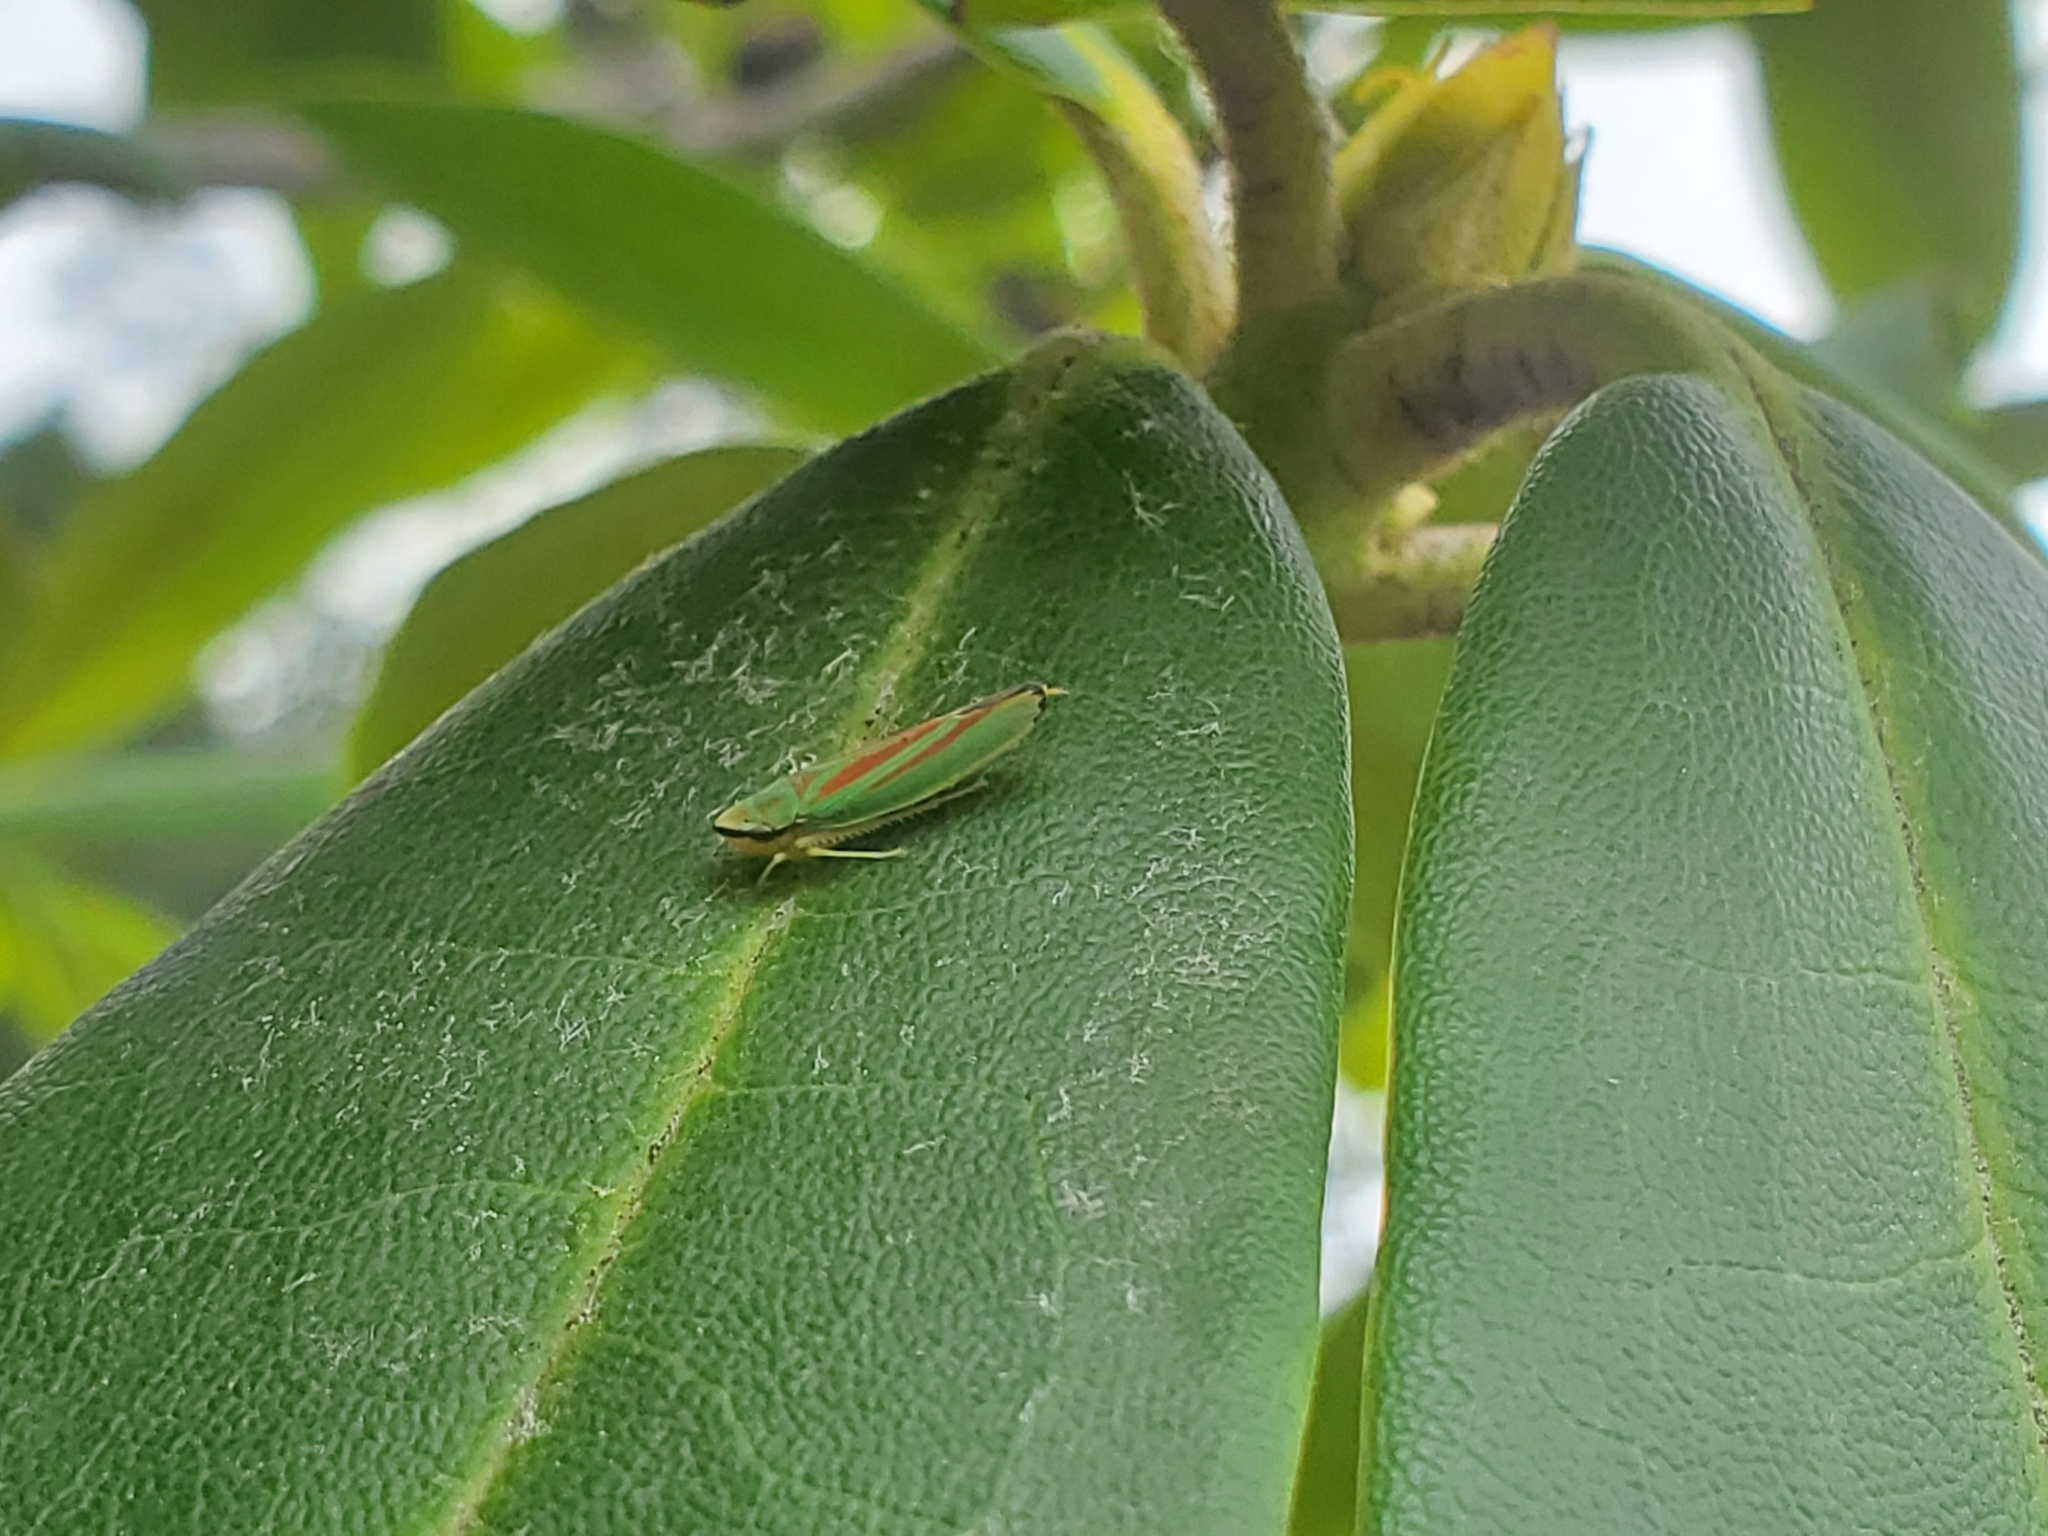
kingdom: Animalia
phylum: Arthropoda
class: Insecta
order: Hemiptera
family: Cicadellidae
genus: Graphocephala
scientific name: Graphocephala fennahi
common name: Rhododendron leafhopper
